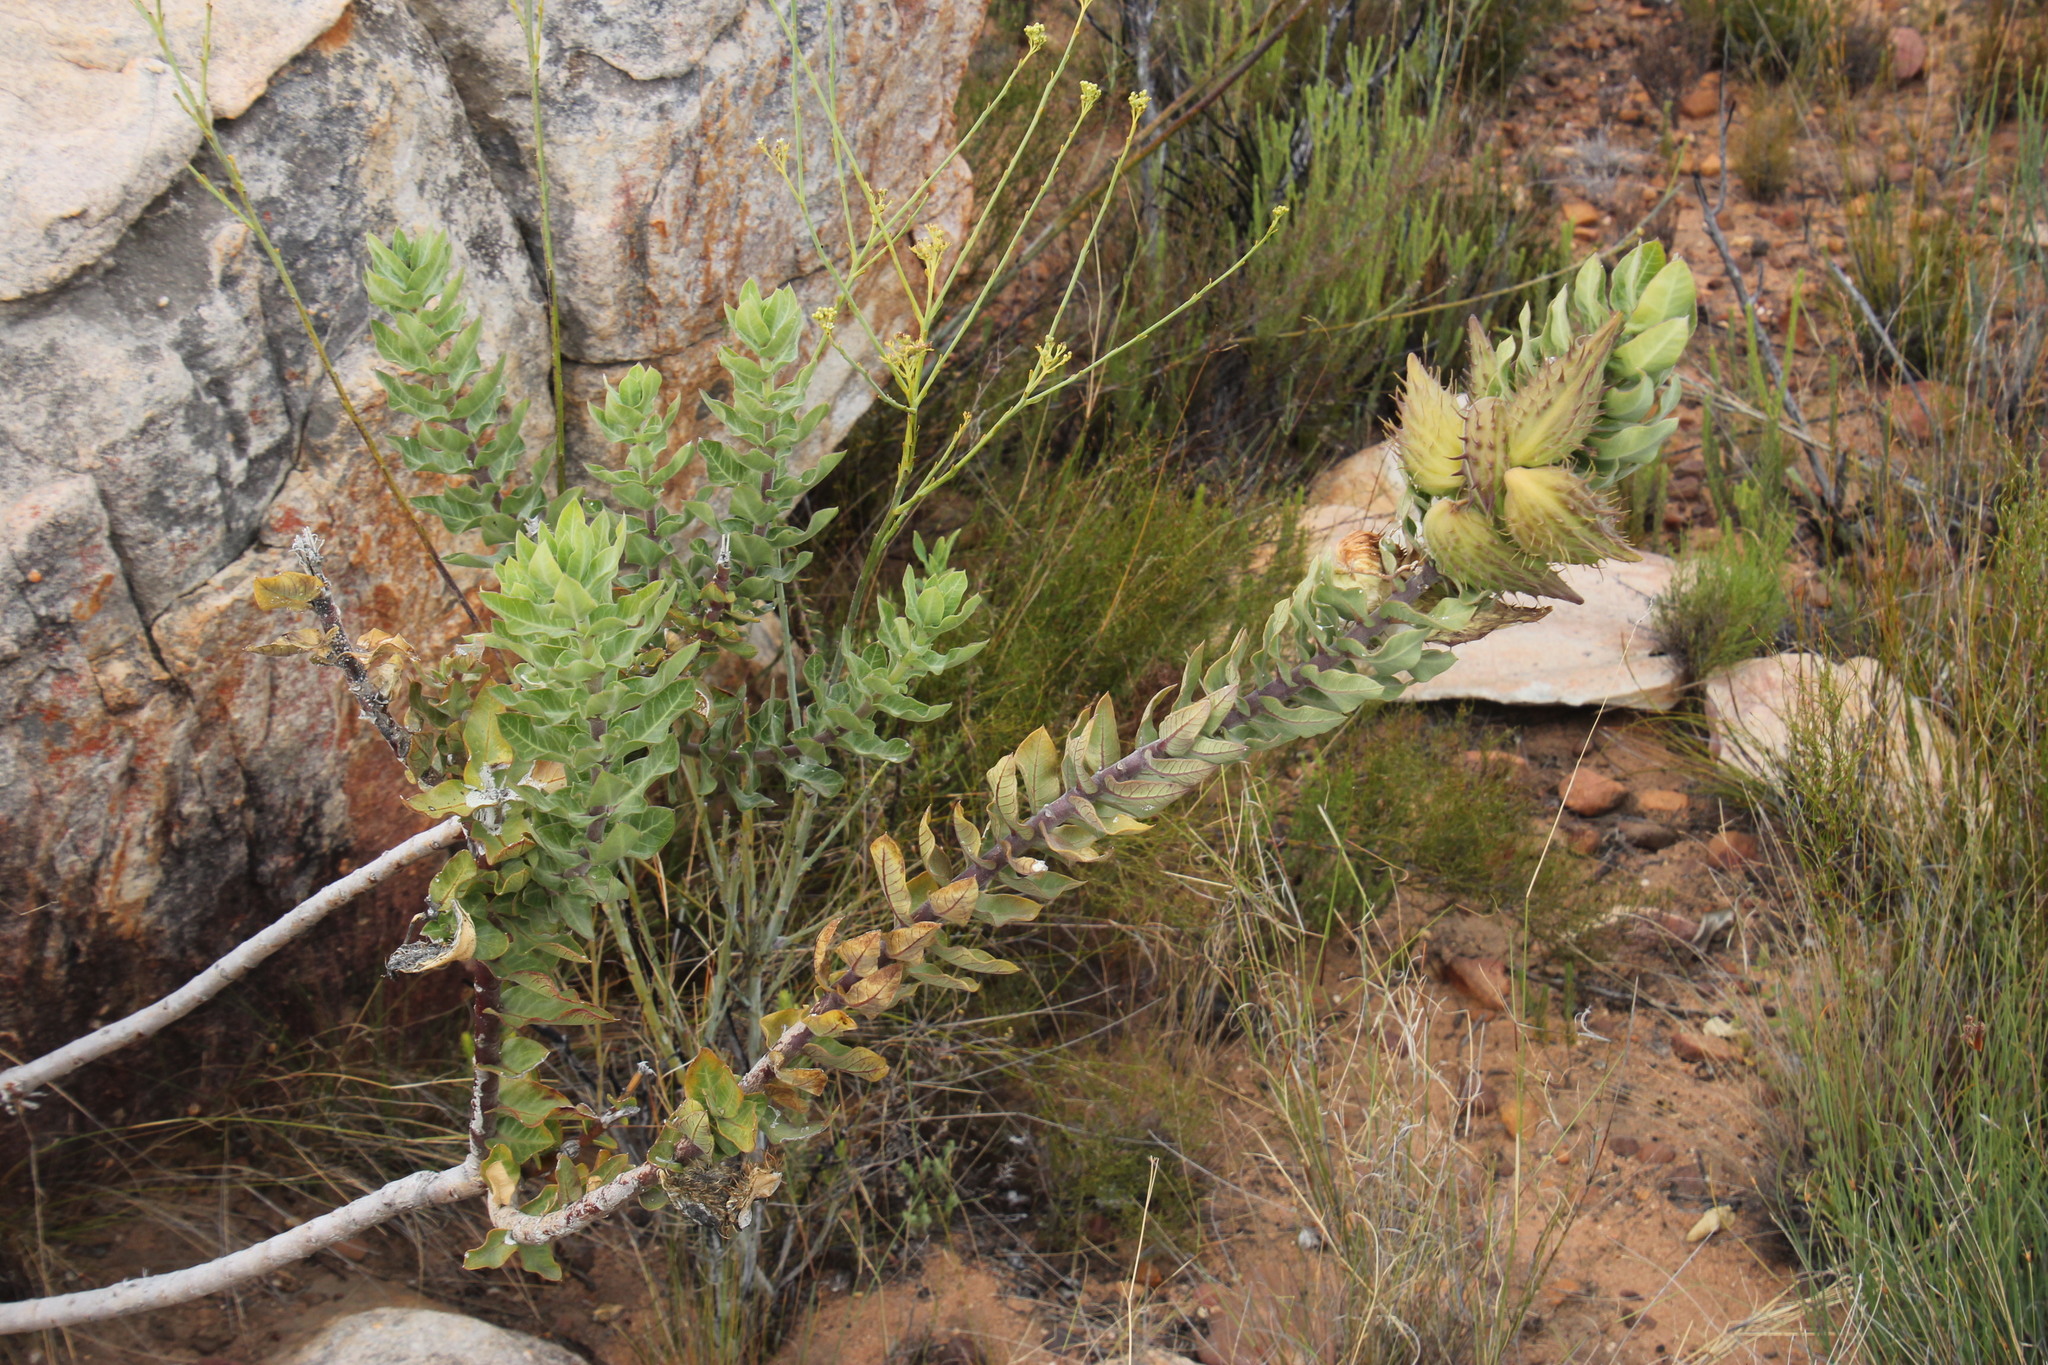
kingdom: Plantae
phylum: Tracheophyta
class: Magnoliopsida
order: Gentianales
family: Apocynaceae
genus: Gomphocarpus
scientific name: Gomphocarpus cancellatus
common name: Wild cotton
